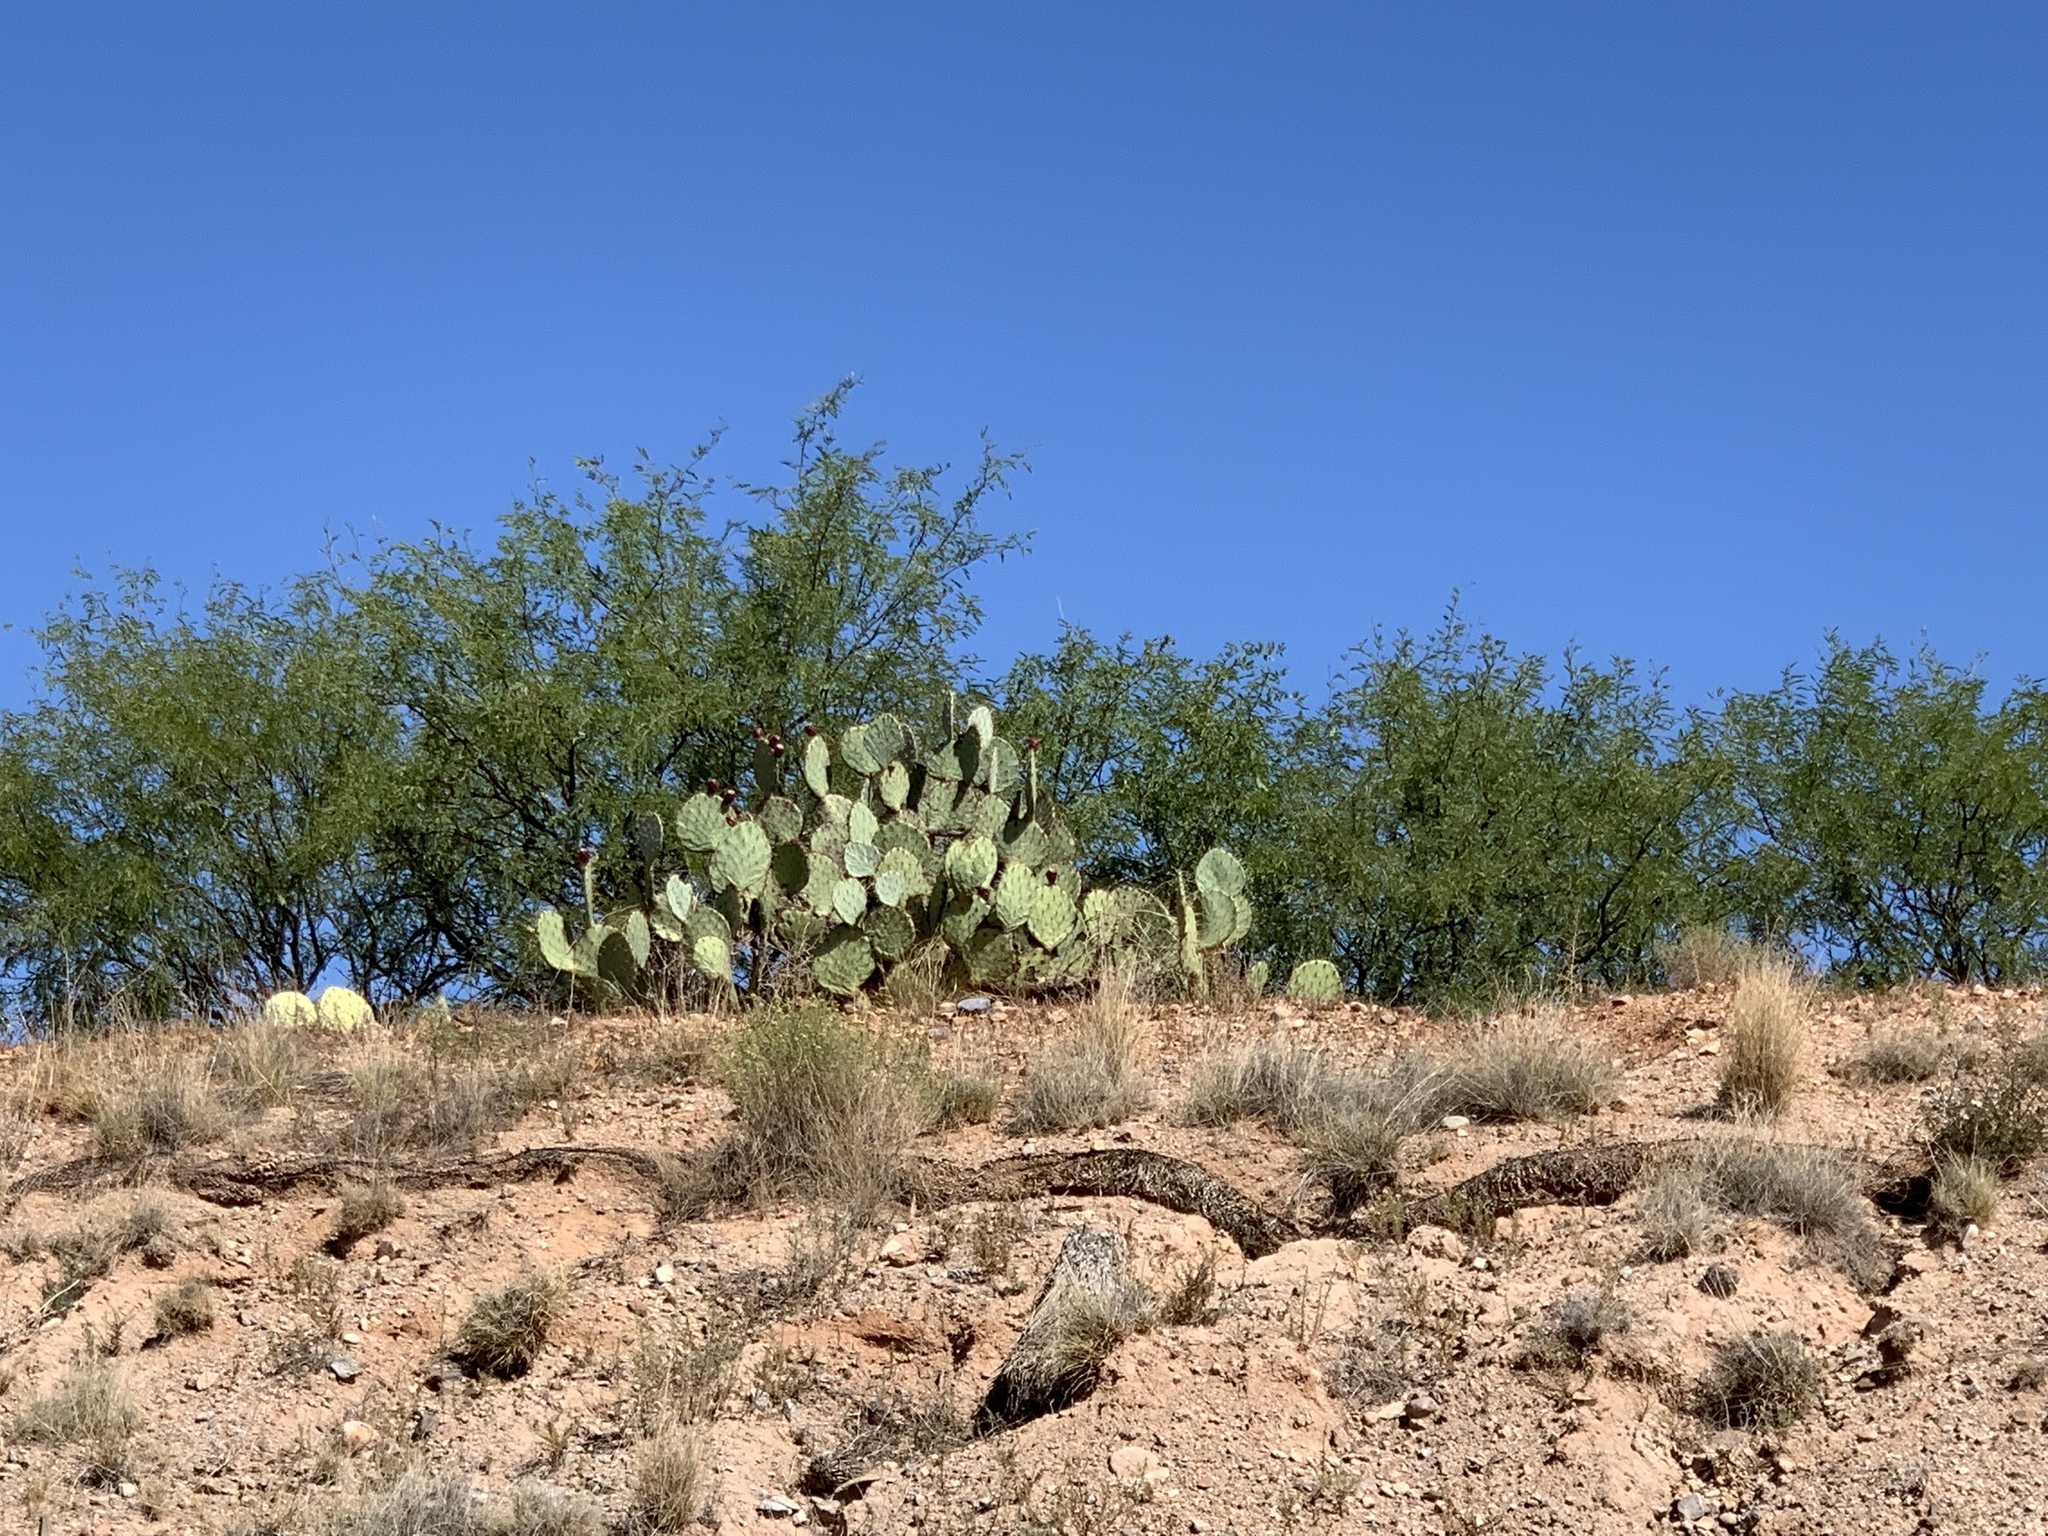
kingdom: Plantae
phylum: Tracheophyta
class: Magnoliopsida
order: Caryophyllales
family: Cactaceae
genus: Opuntia
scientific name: Opuntia engelmannii
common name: Cactus-apple
